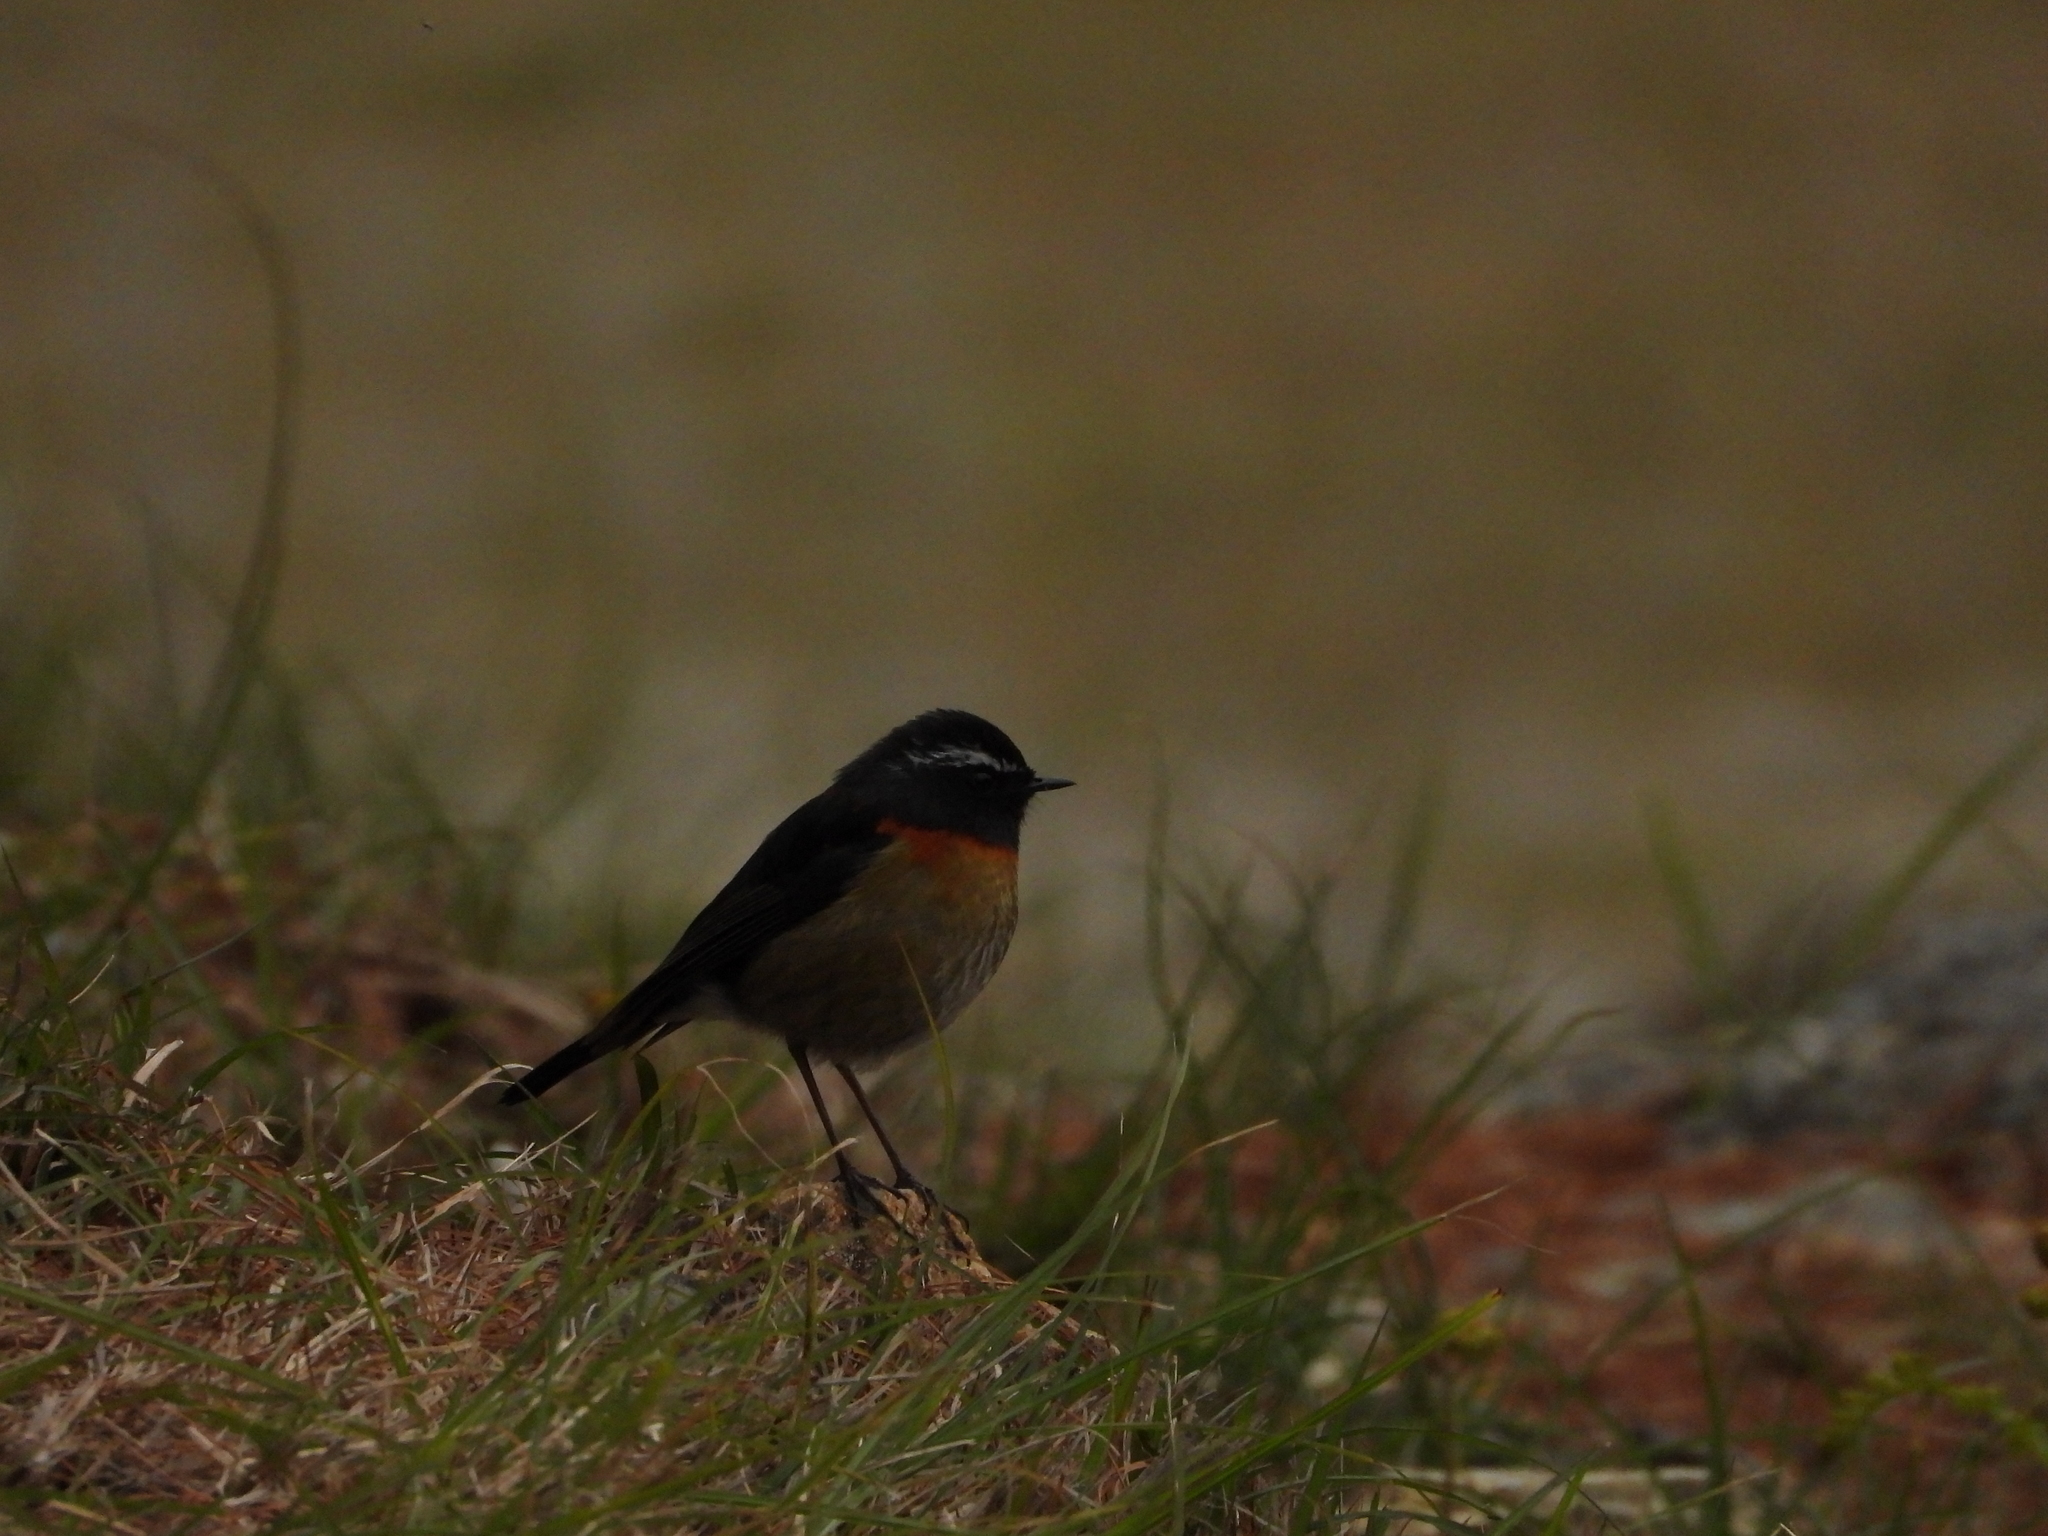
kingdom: Animalia
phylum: Chordata
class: Aves
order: Passeriformes
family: Muscicapidae
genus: Tarsiger
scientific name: Tarsiger johnstoniae
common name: Collared bush robin
